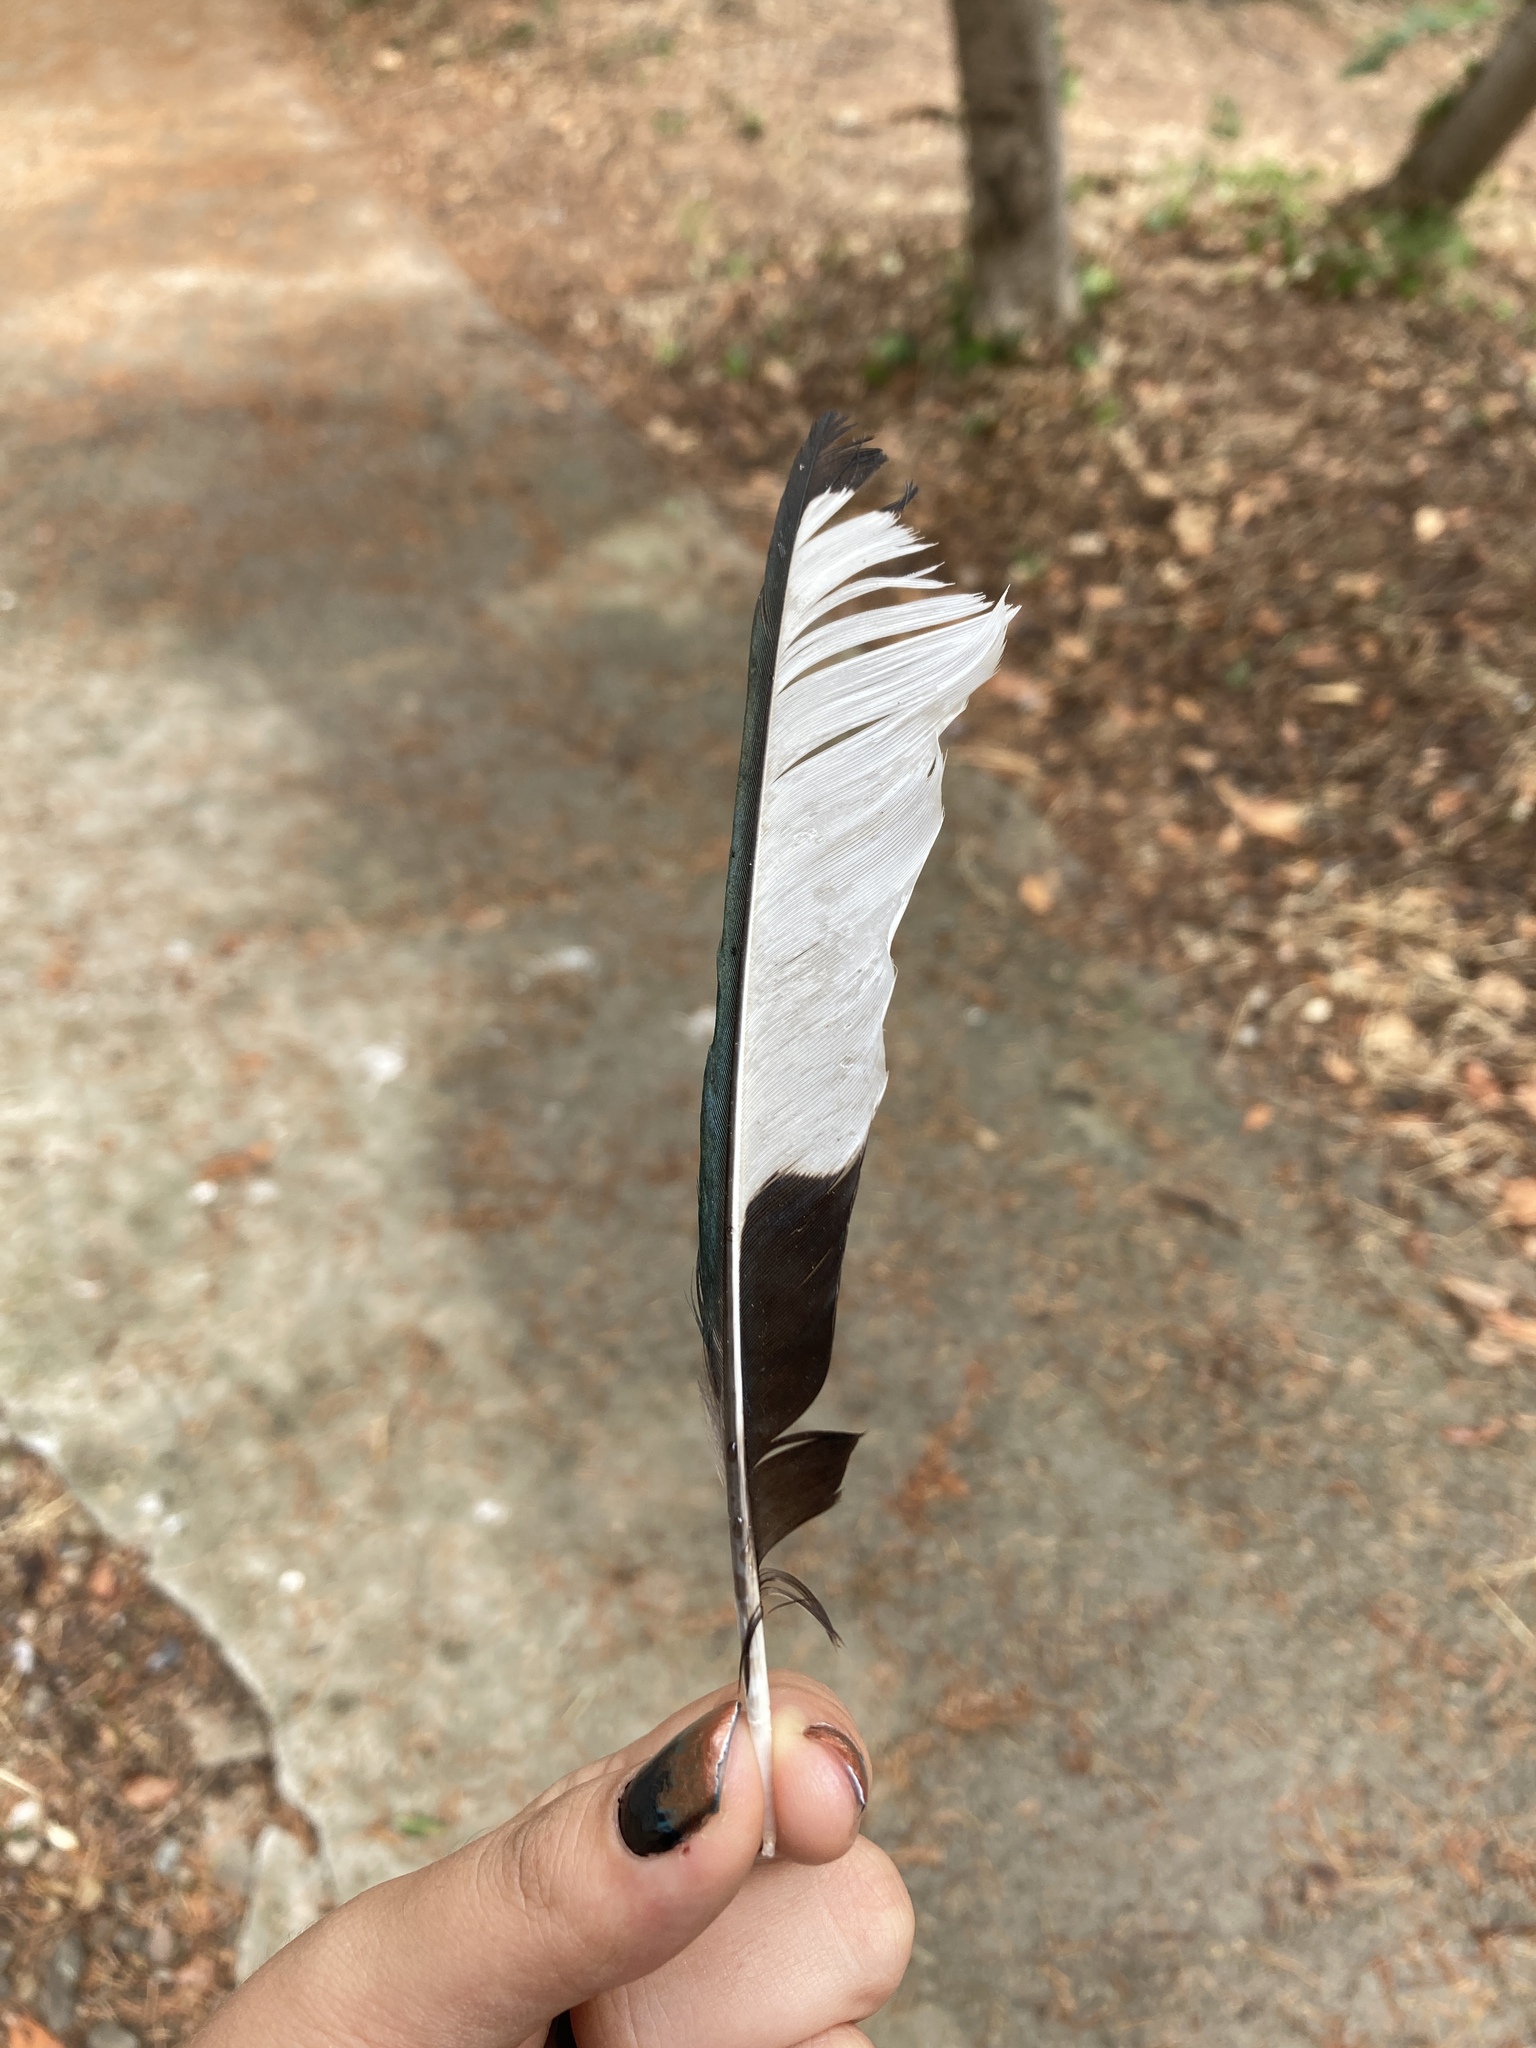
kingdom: Animalia
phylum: Chordata
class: Aves
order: Passeriformes
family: Corvidae
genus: Pica
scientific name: Pica pica
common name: Eurasian magpie
